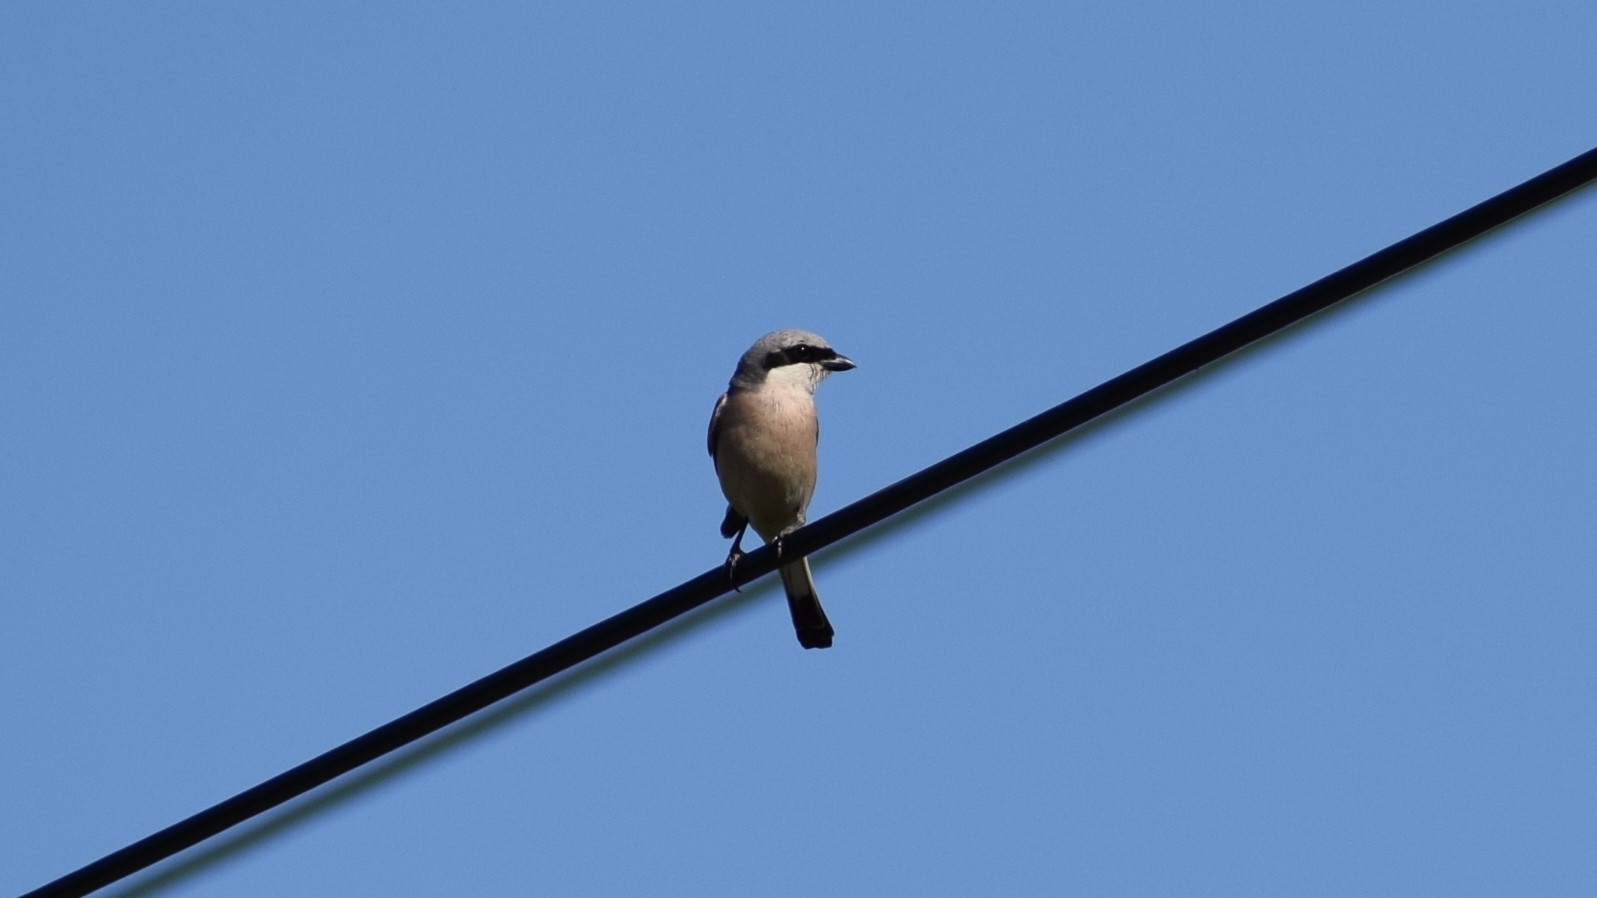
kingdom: Animalia
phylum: Chordata
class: Aves
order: Passeriformes
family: Laniidae
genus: Lanius
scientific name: Lanius collurio
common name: Red-backed shrike
